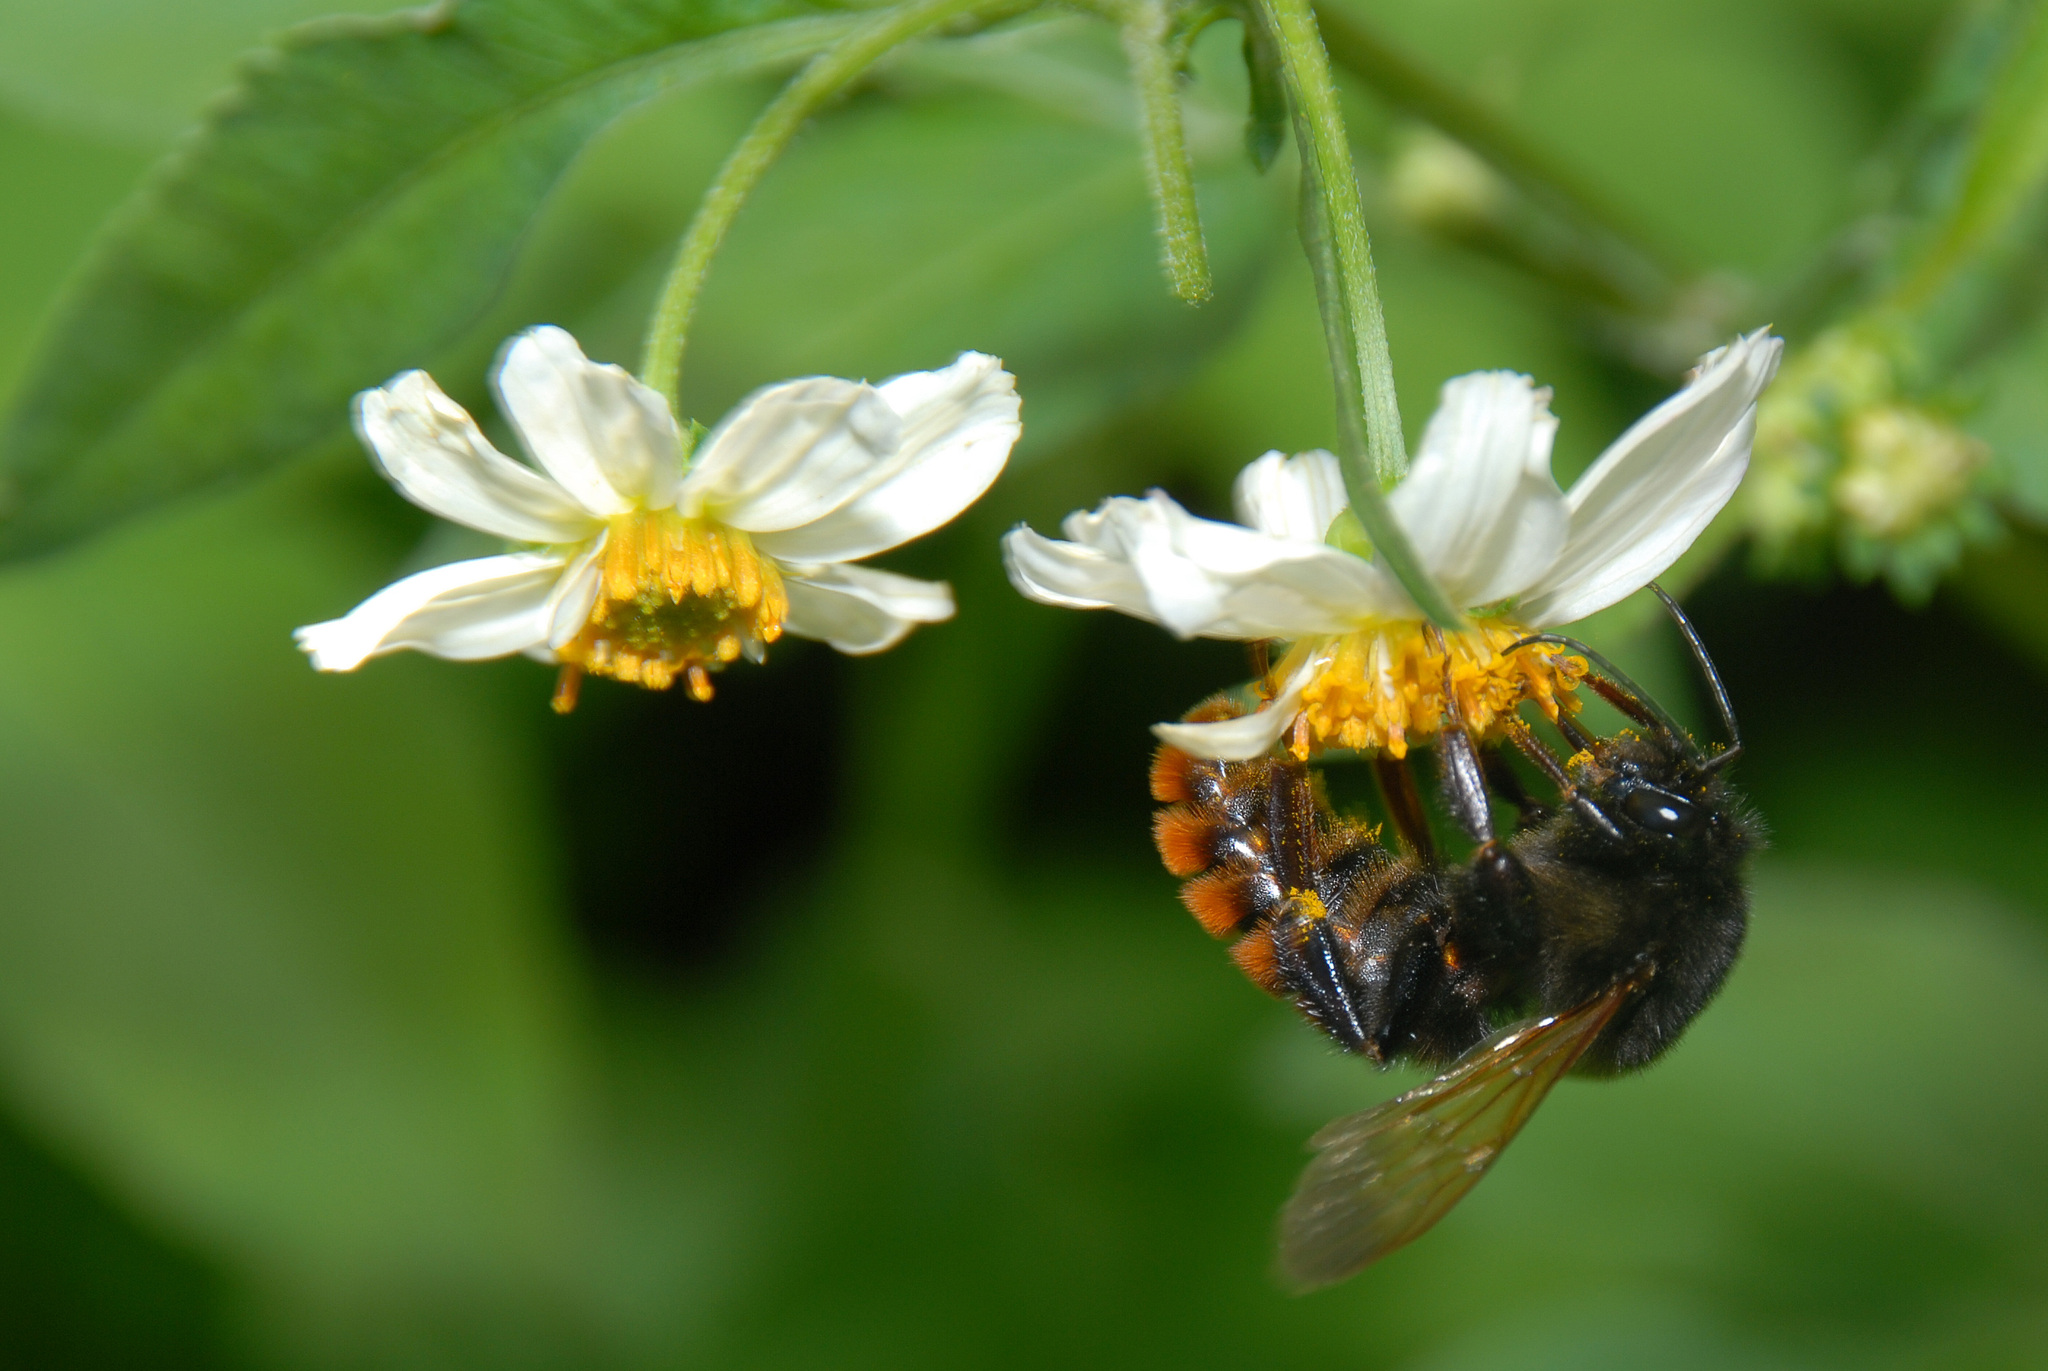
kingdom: Animalia
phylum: Arthropoda
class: Insecta
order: Hymenoptera
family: Apidae
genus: Bombus
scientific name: Bombus bicoloratus
